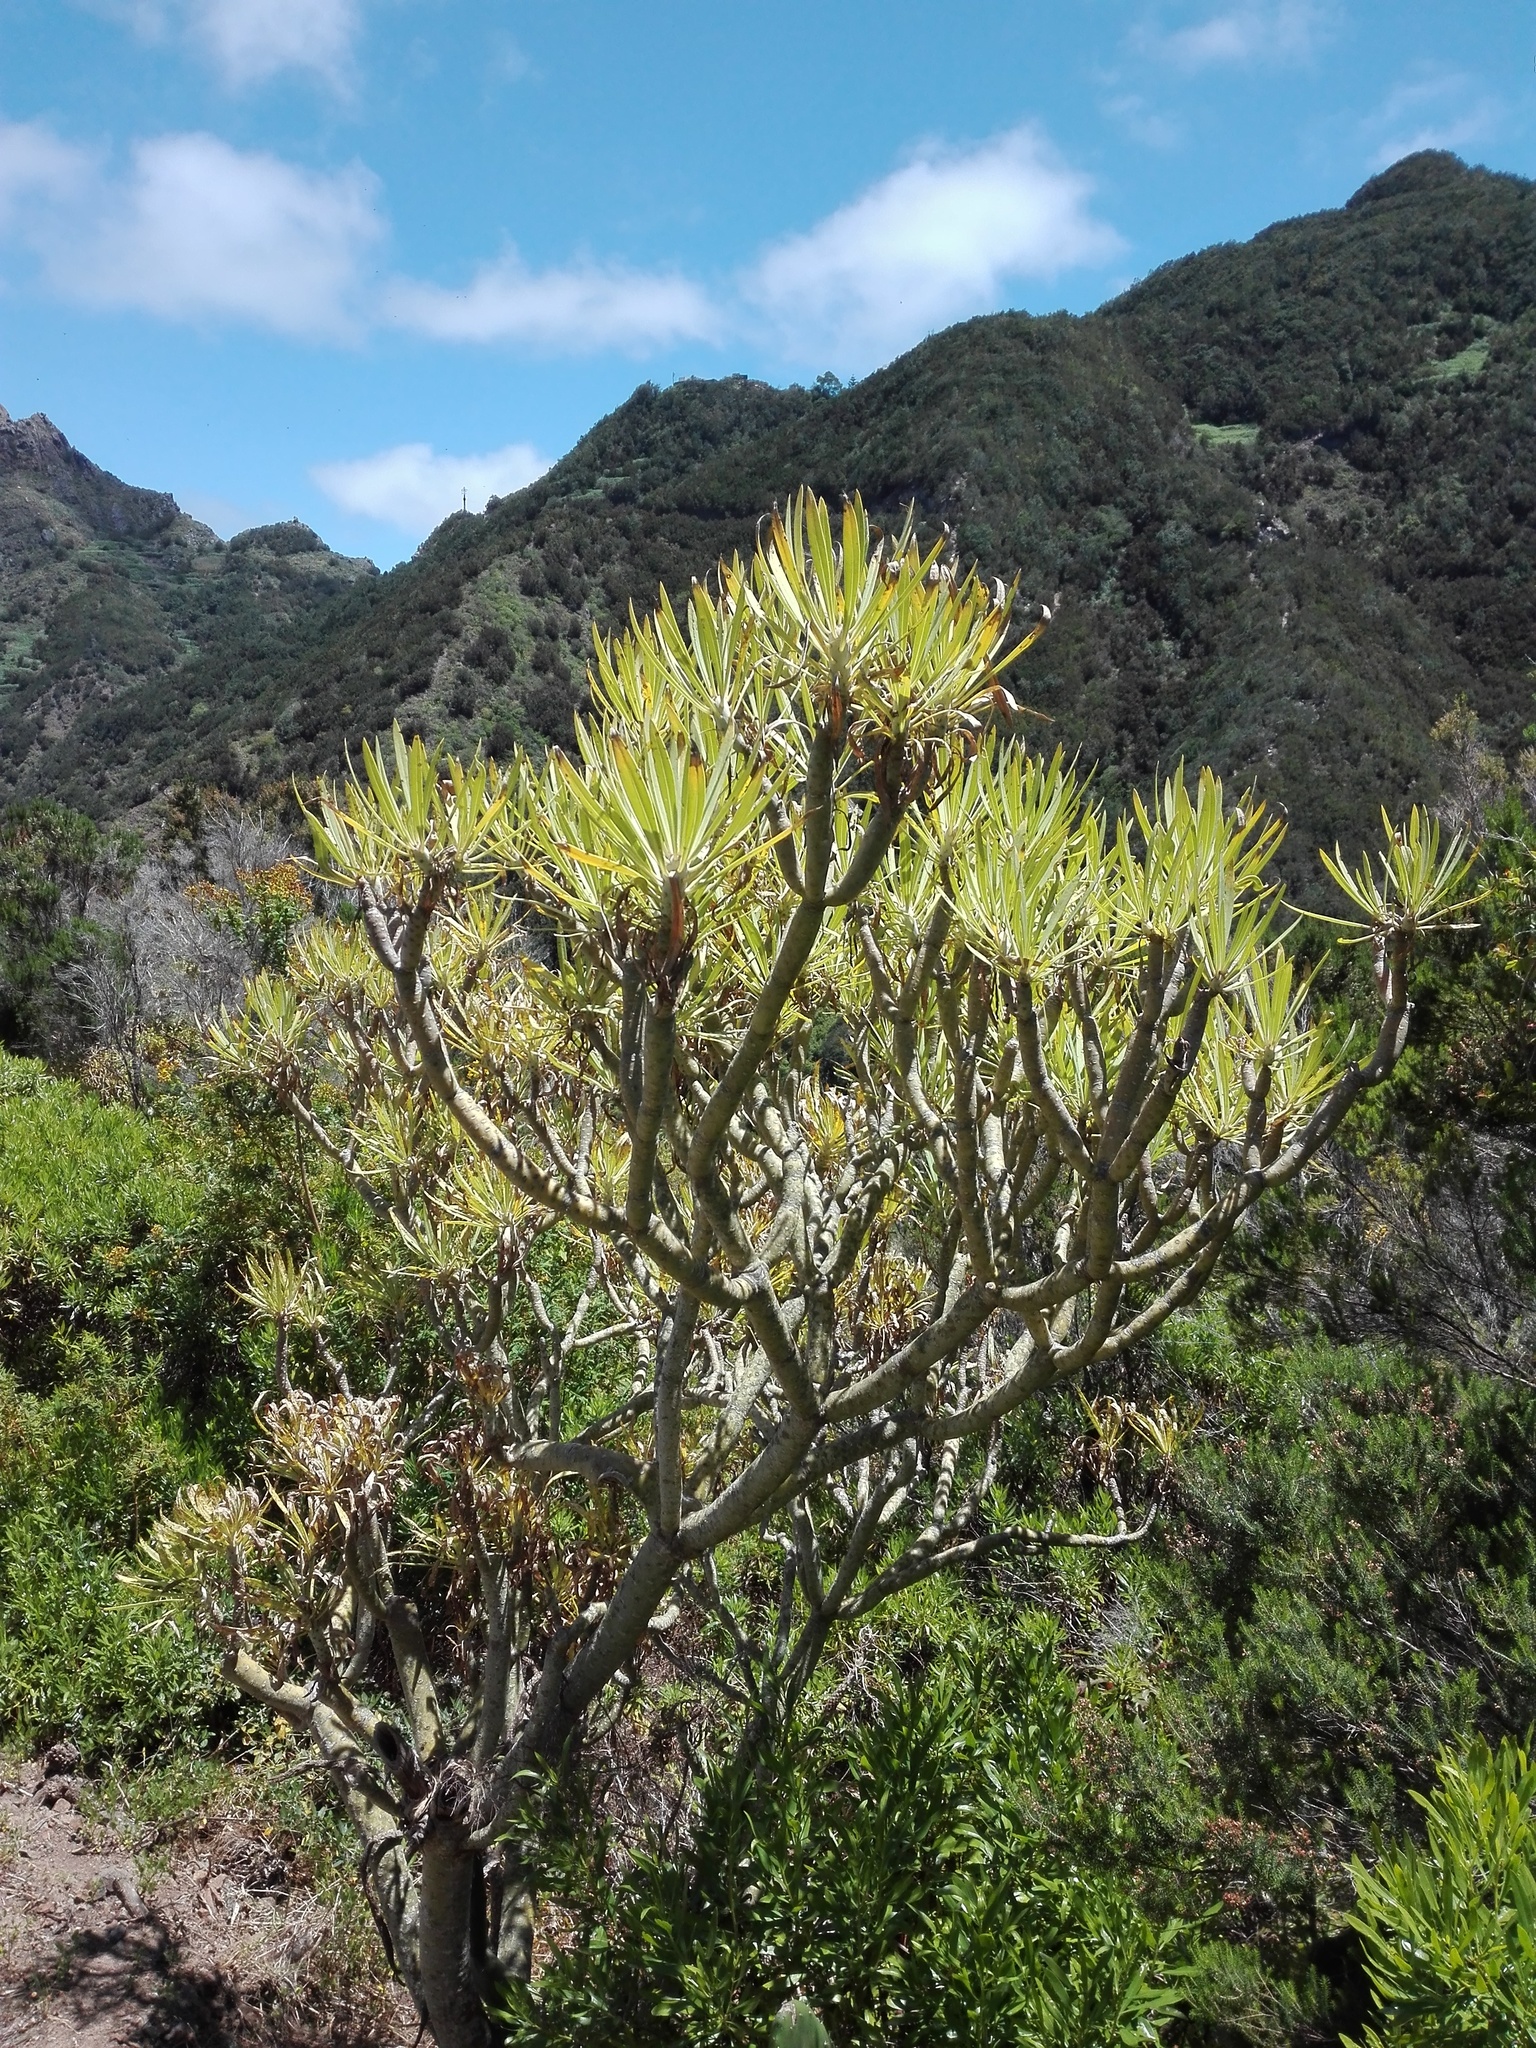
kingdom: Plantae
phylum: Tracheophyta
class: Magnoliopsida
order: Asterales
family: Asteraceae
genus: Kleinia
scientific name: Kleinia neriifolia
